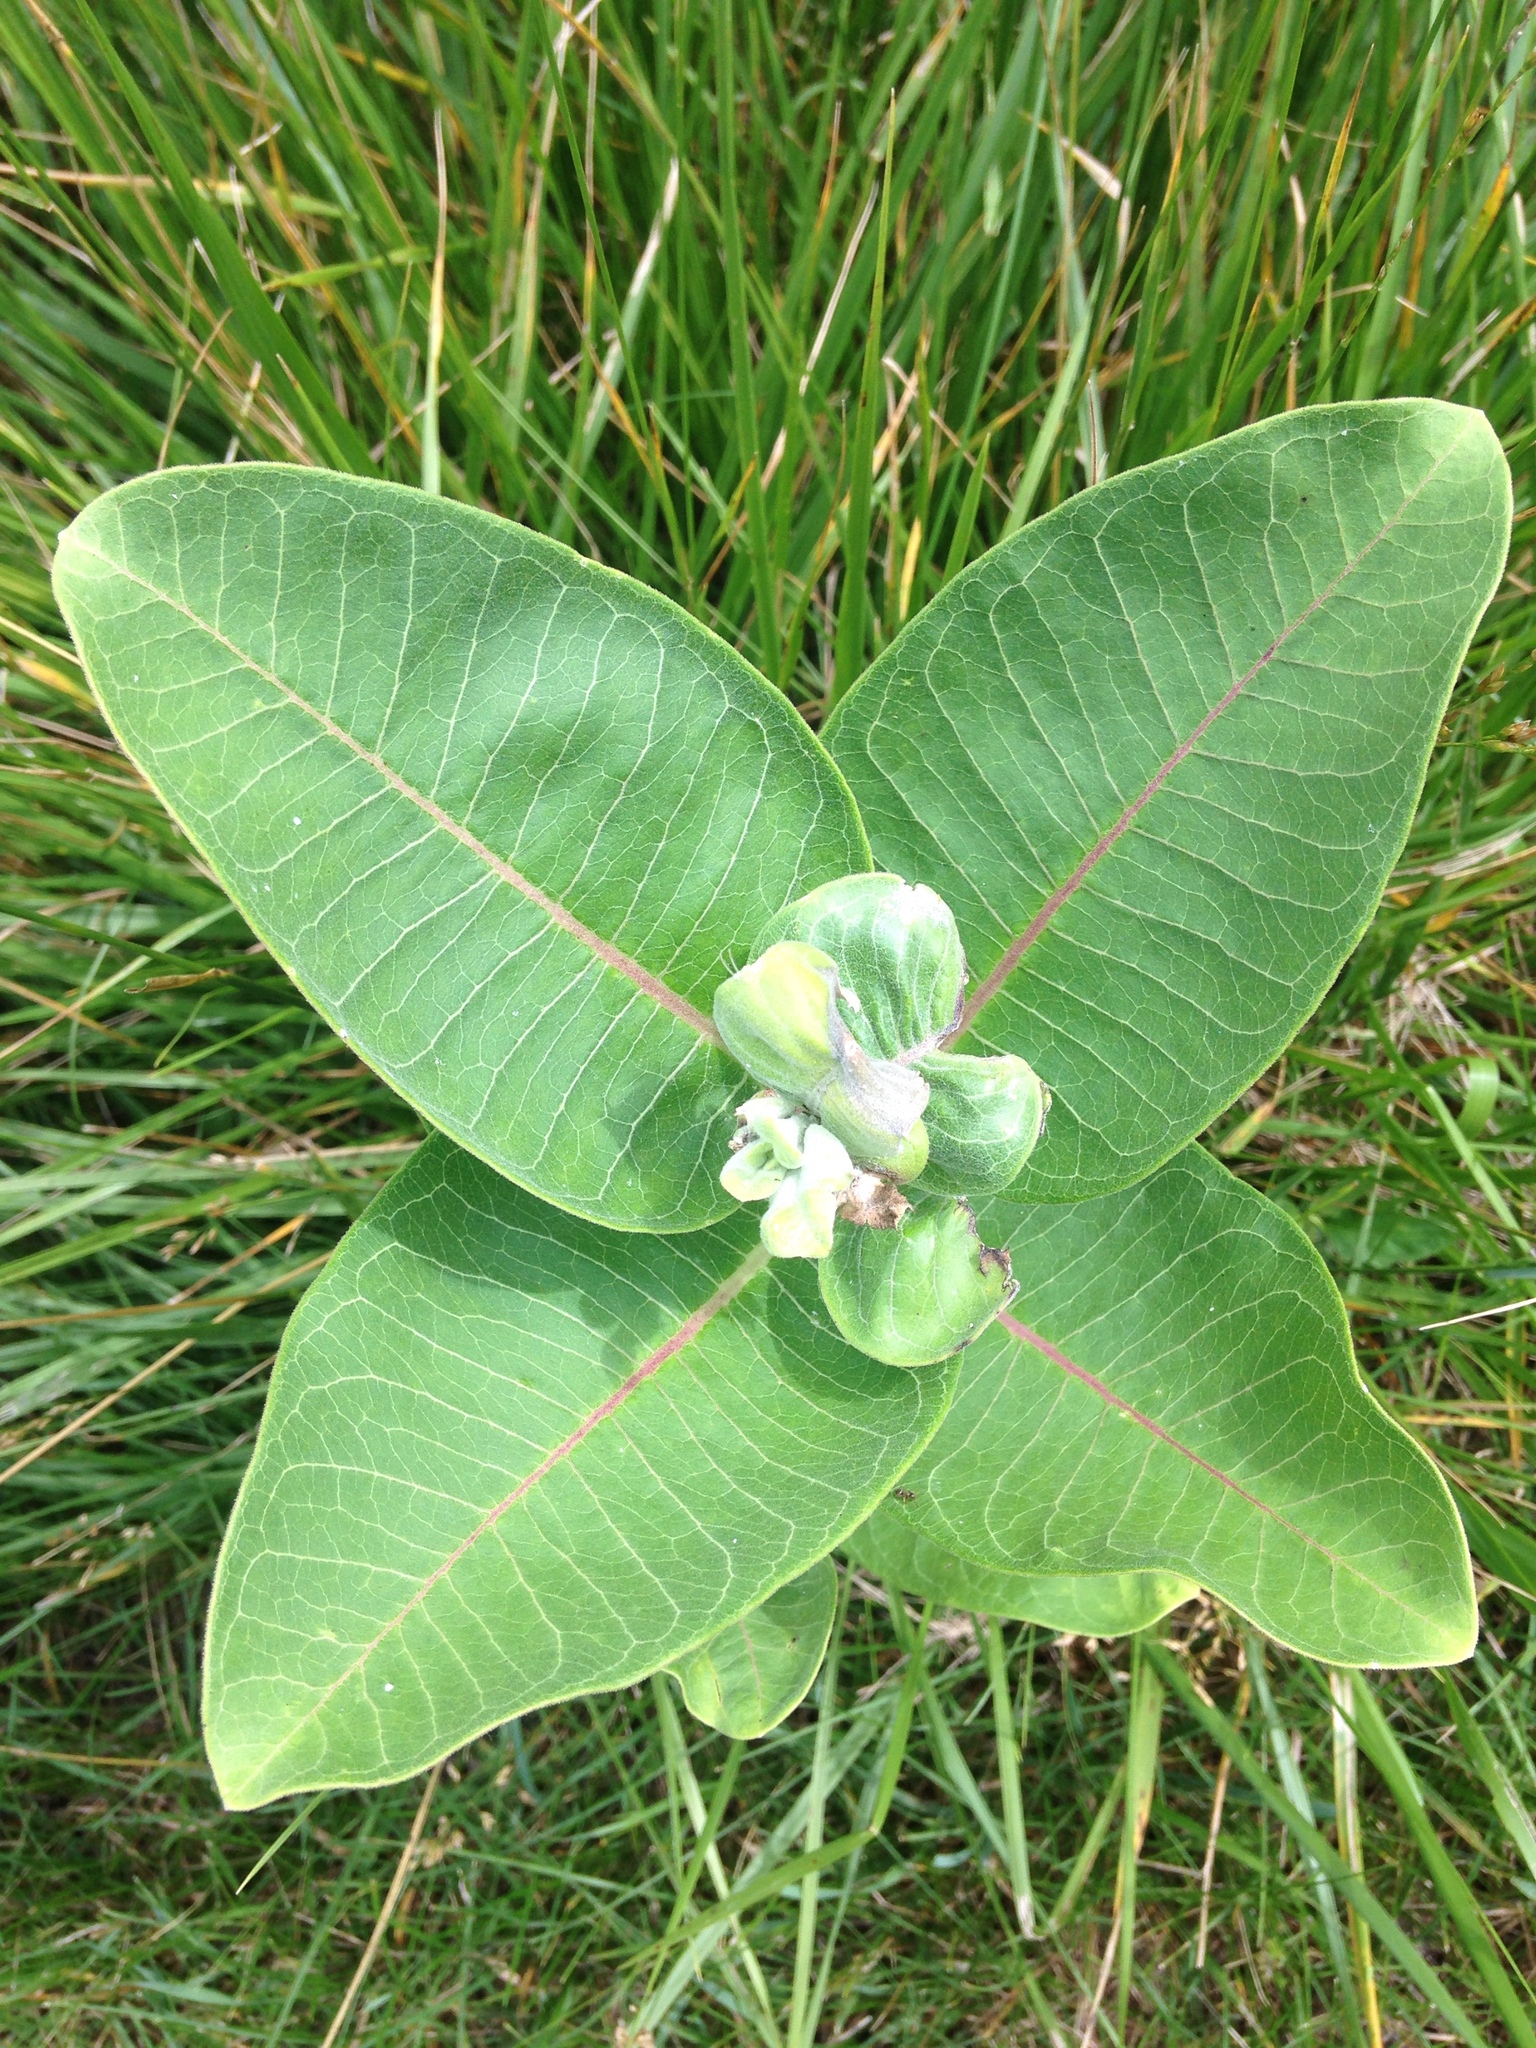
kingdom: Plantae
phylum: Tracheophyta
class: Magnoliopsida
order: Gentianales
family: Apocynaceae
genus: Asclepias
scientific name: Asclepias syriaca
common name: Common milkweed
